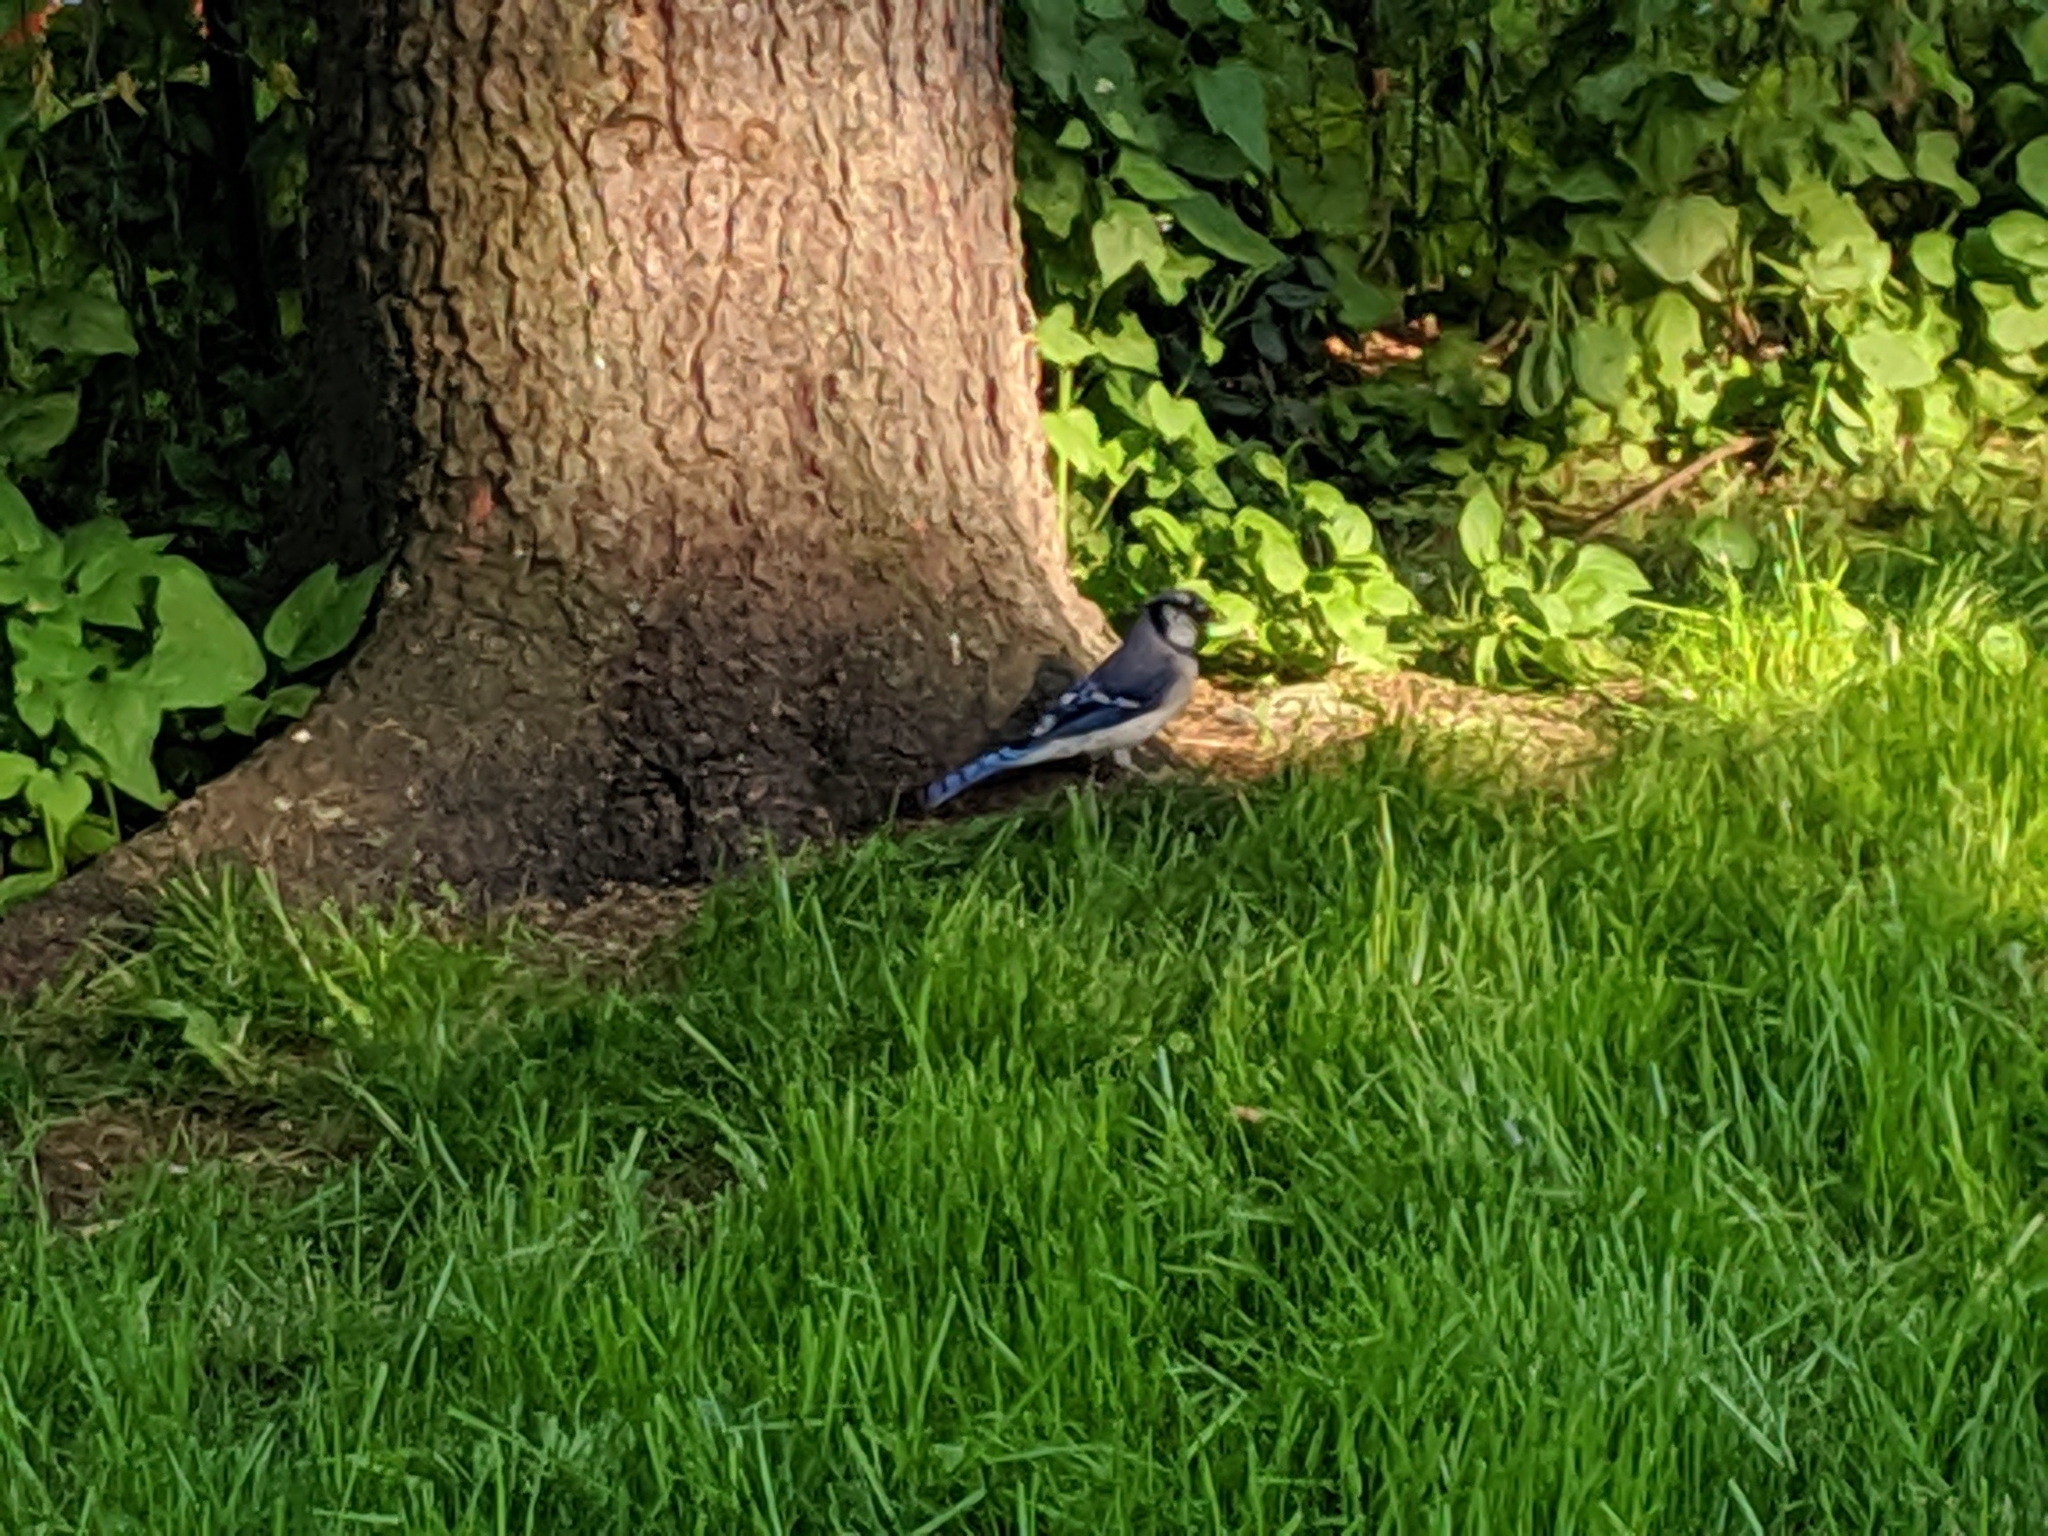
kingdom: Animalia
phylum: Chordata
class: Aves
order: Passeriformes
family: Corvidae
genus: Cyanocitta
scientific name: Cyanocitta cristata
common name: Blue jay
